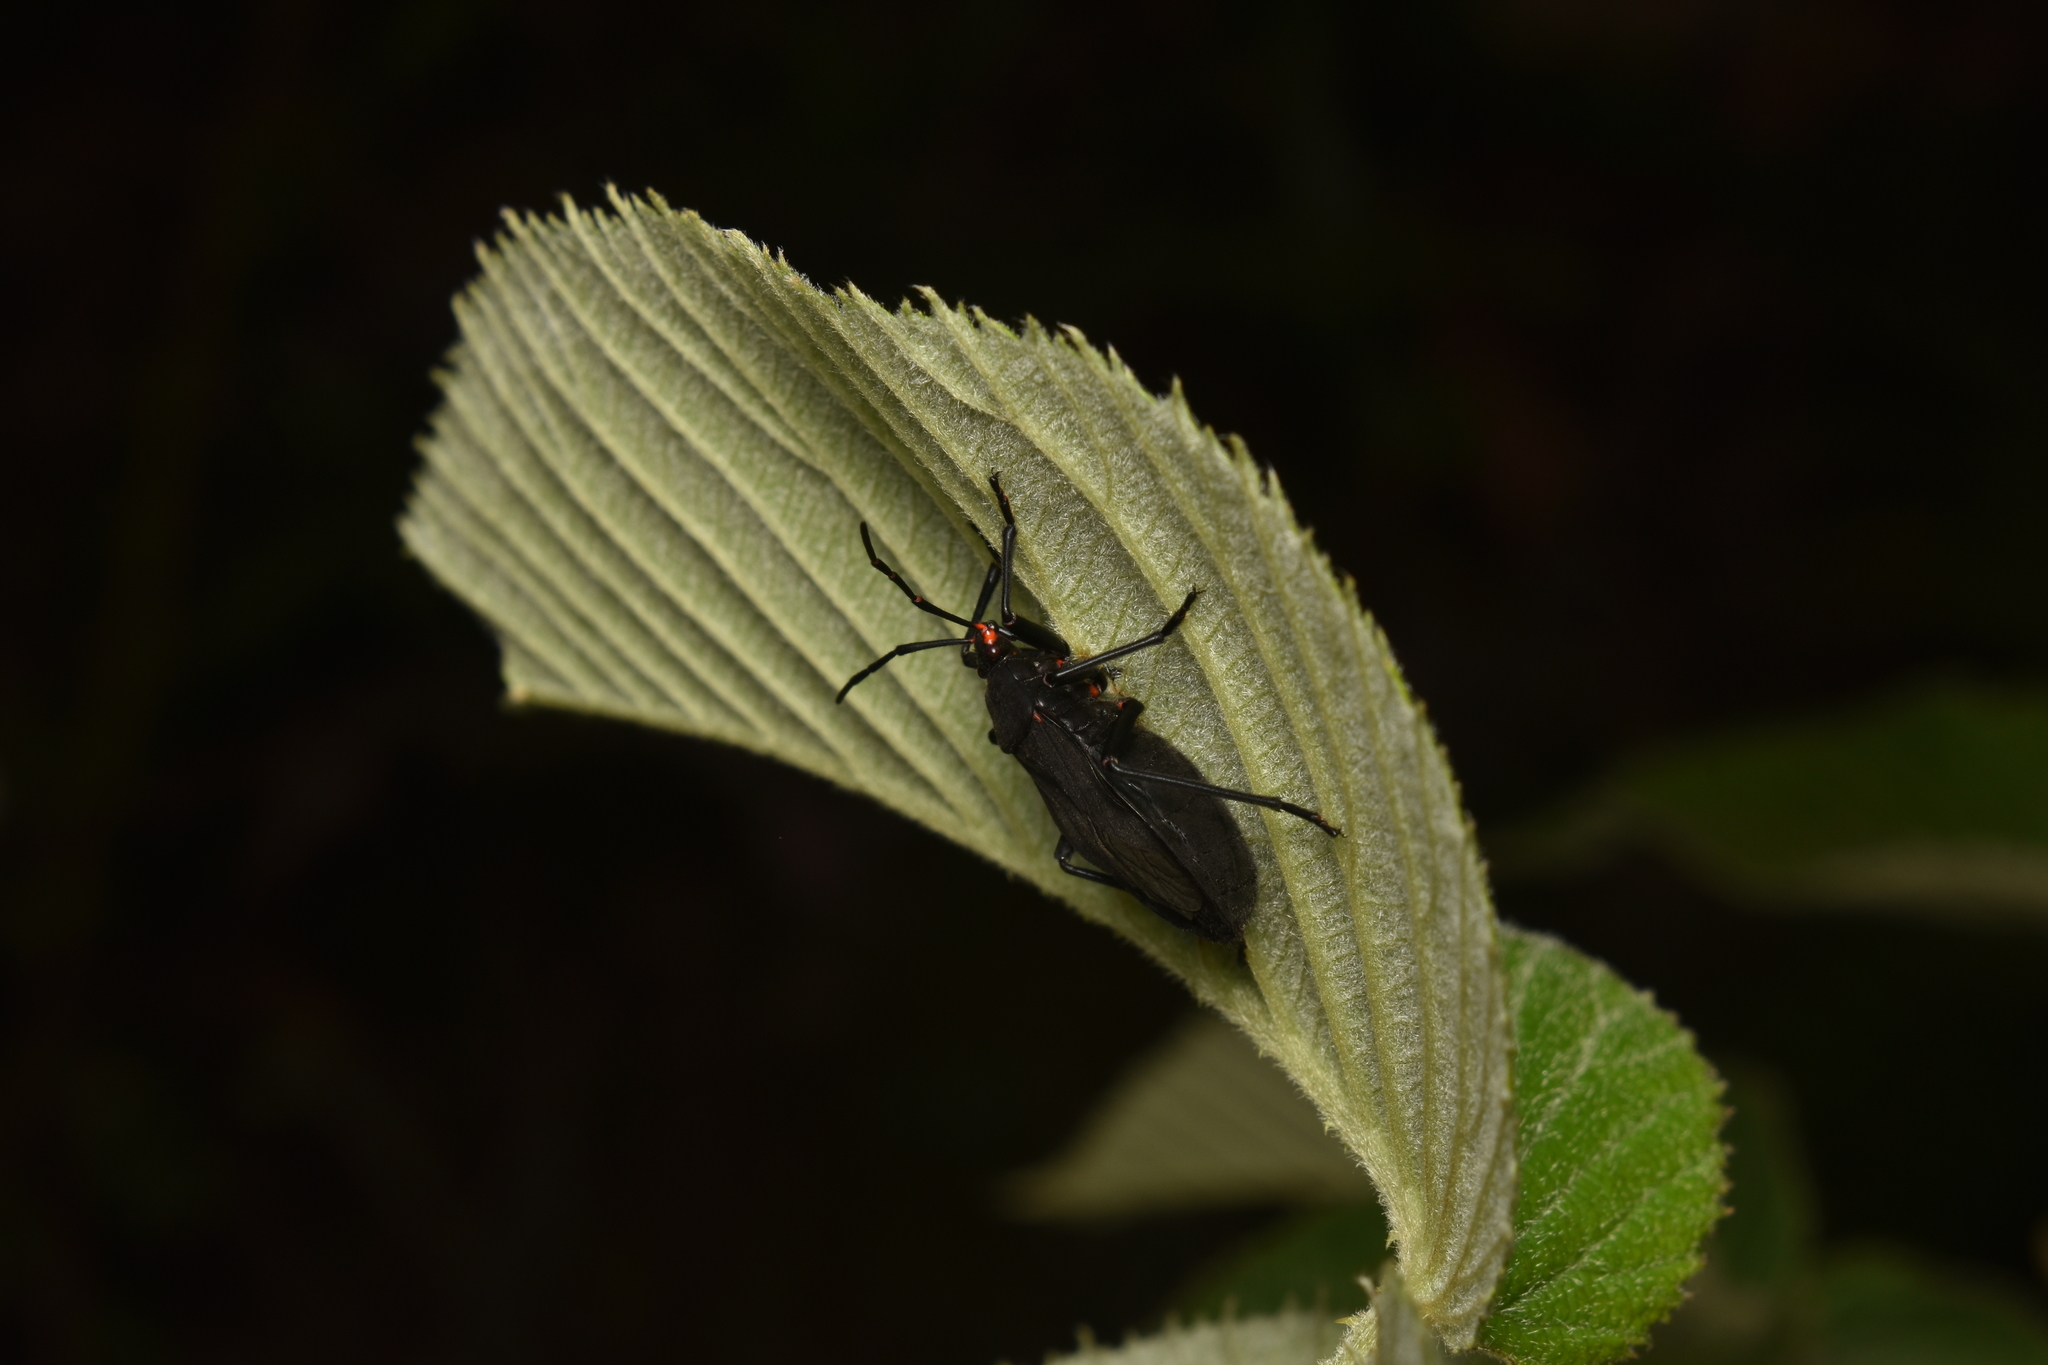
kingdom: Animalia
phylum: Arthropoda
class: Insecta
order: Hemiptera
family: Largidae
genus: Largus
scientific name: Largus morio
